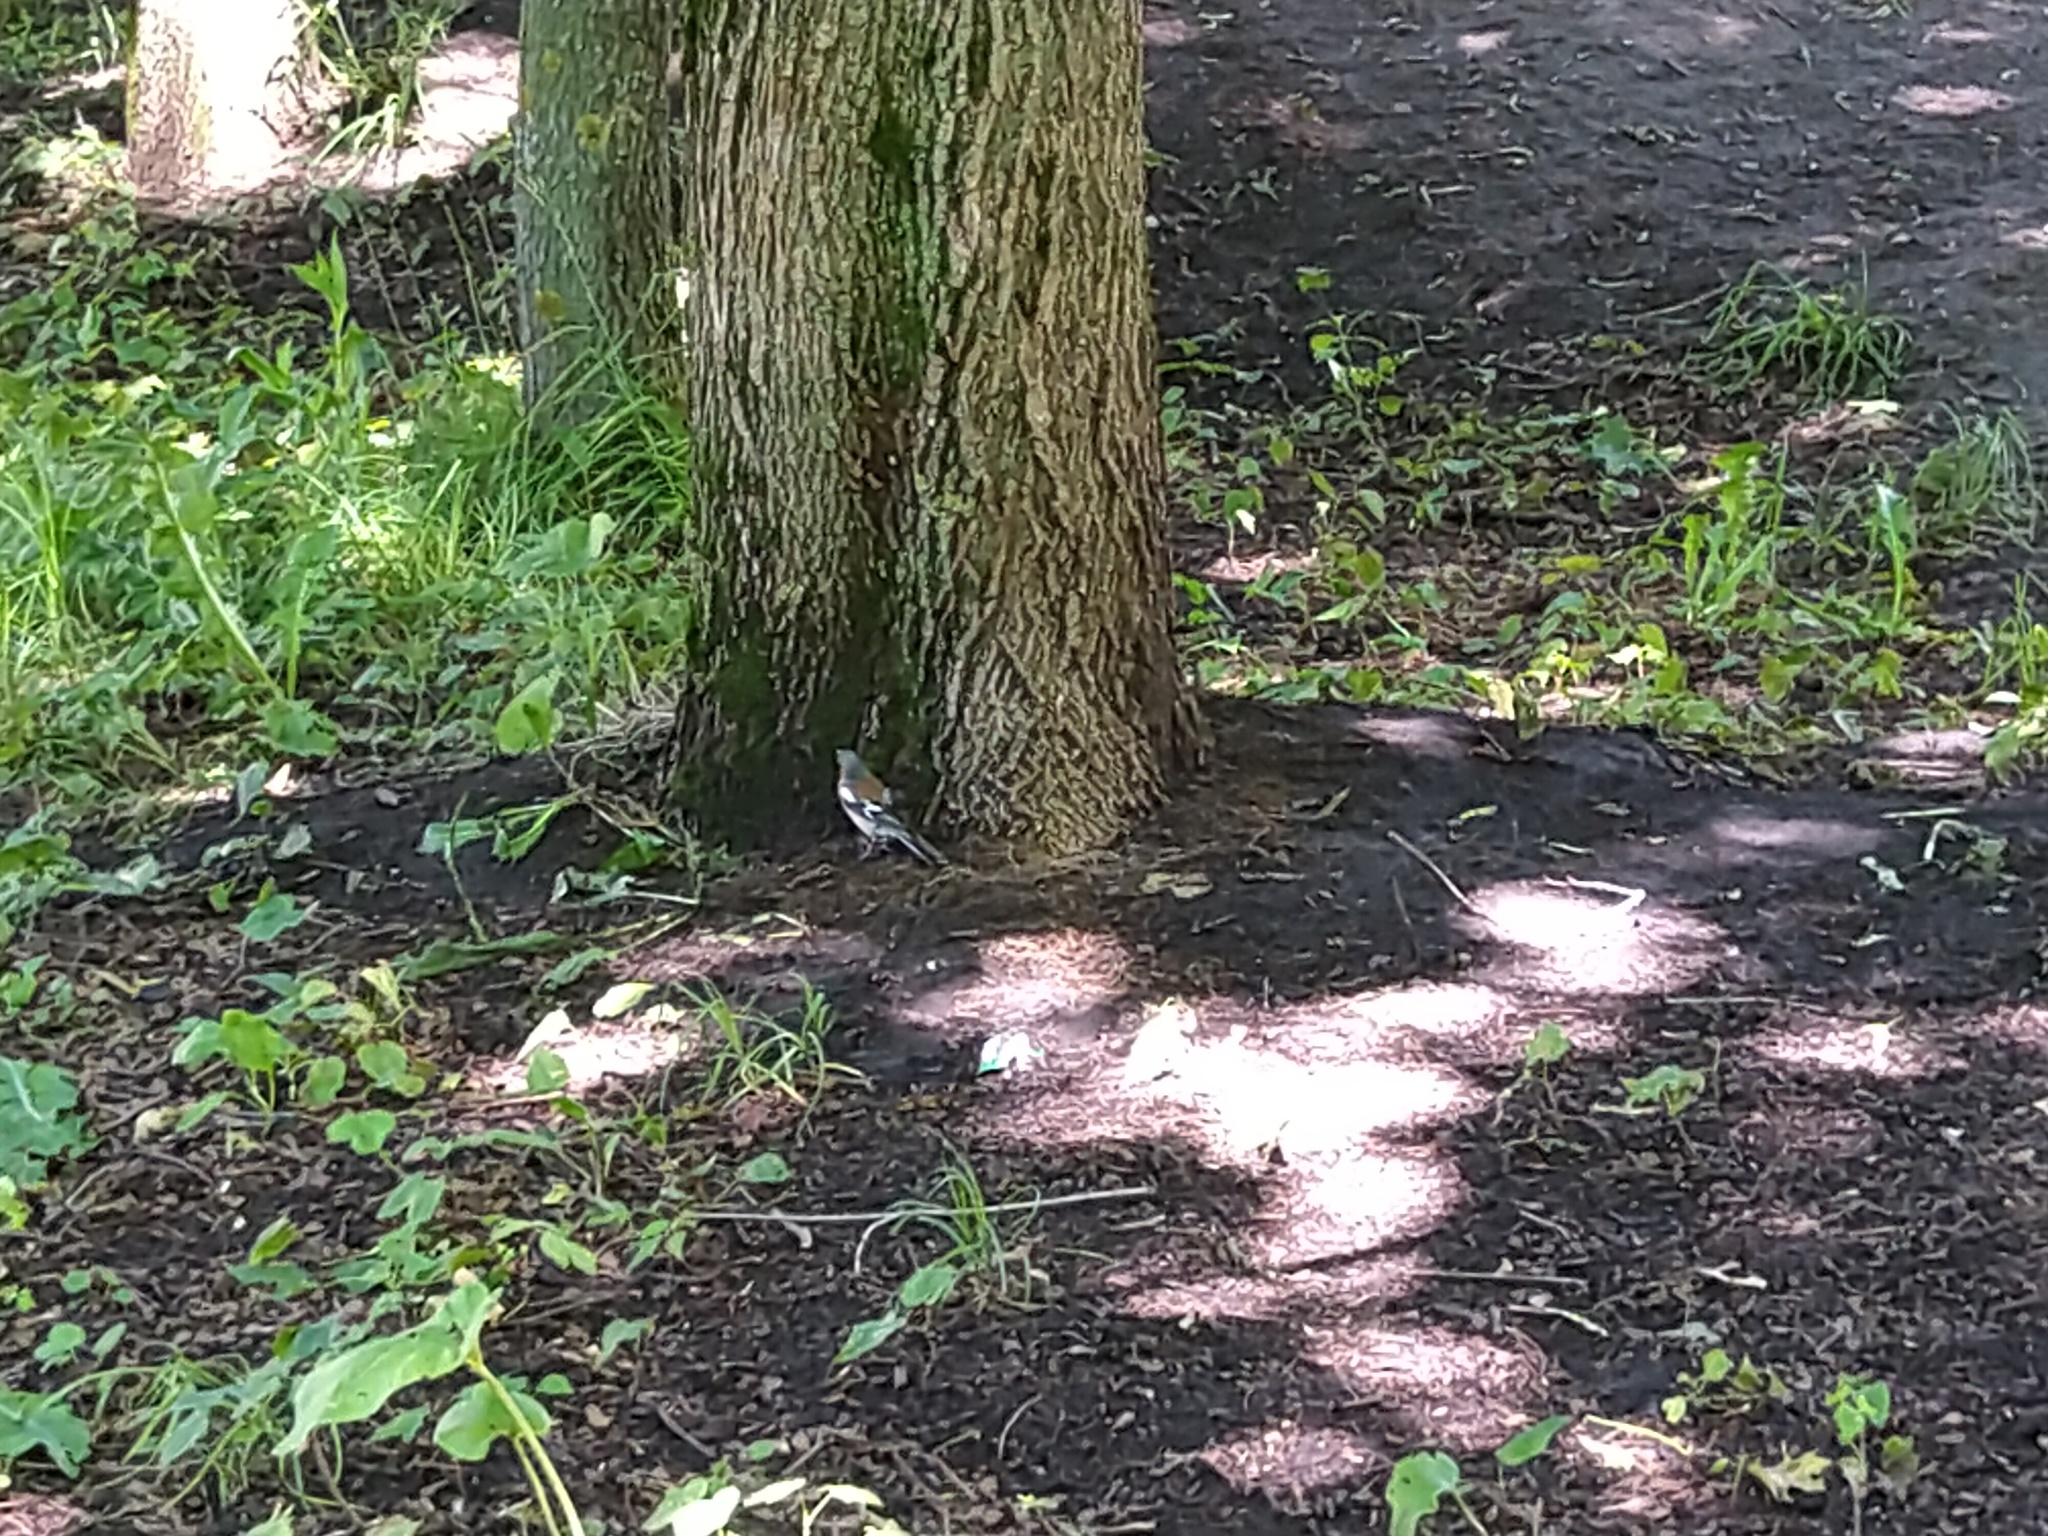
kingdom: Animalia
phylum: Chordata
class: Aves
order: Passeriformes
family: Fringillidae
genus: Fringilla
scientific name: Fringilla coelebs
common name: Common chaffinch
